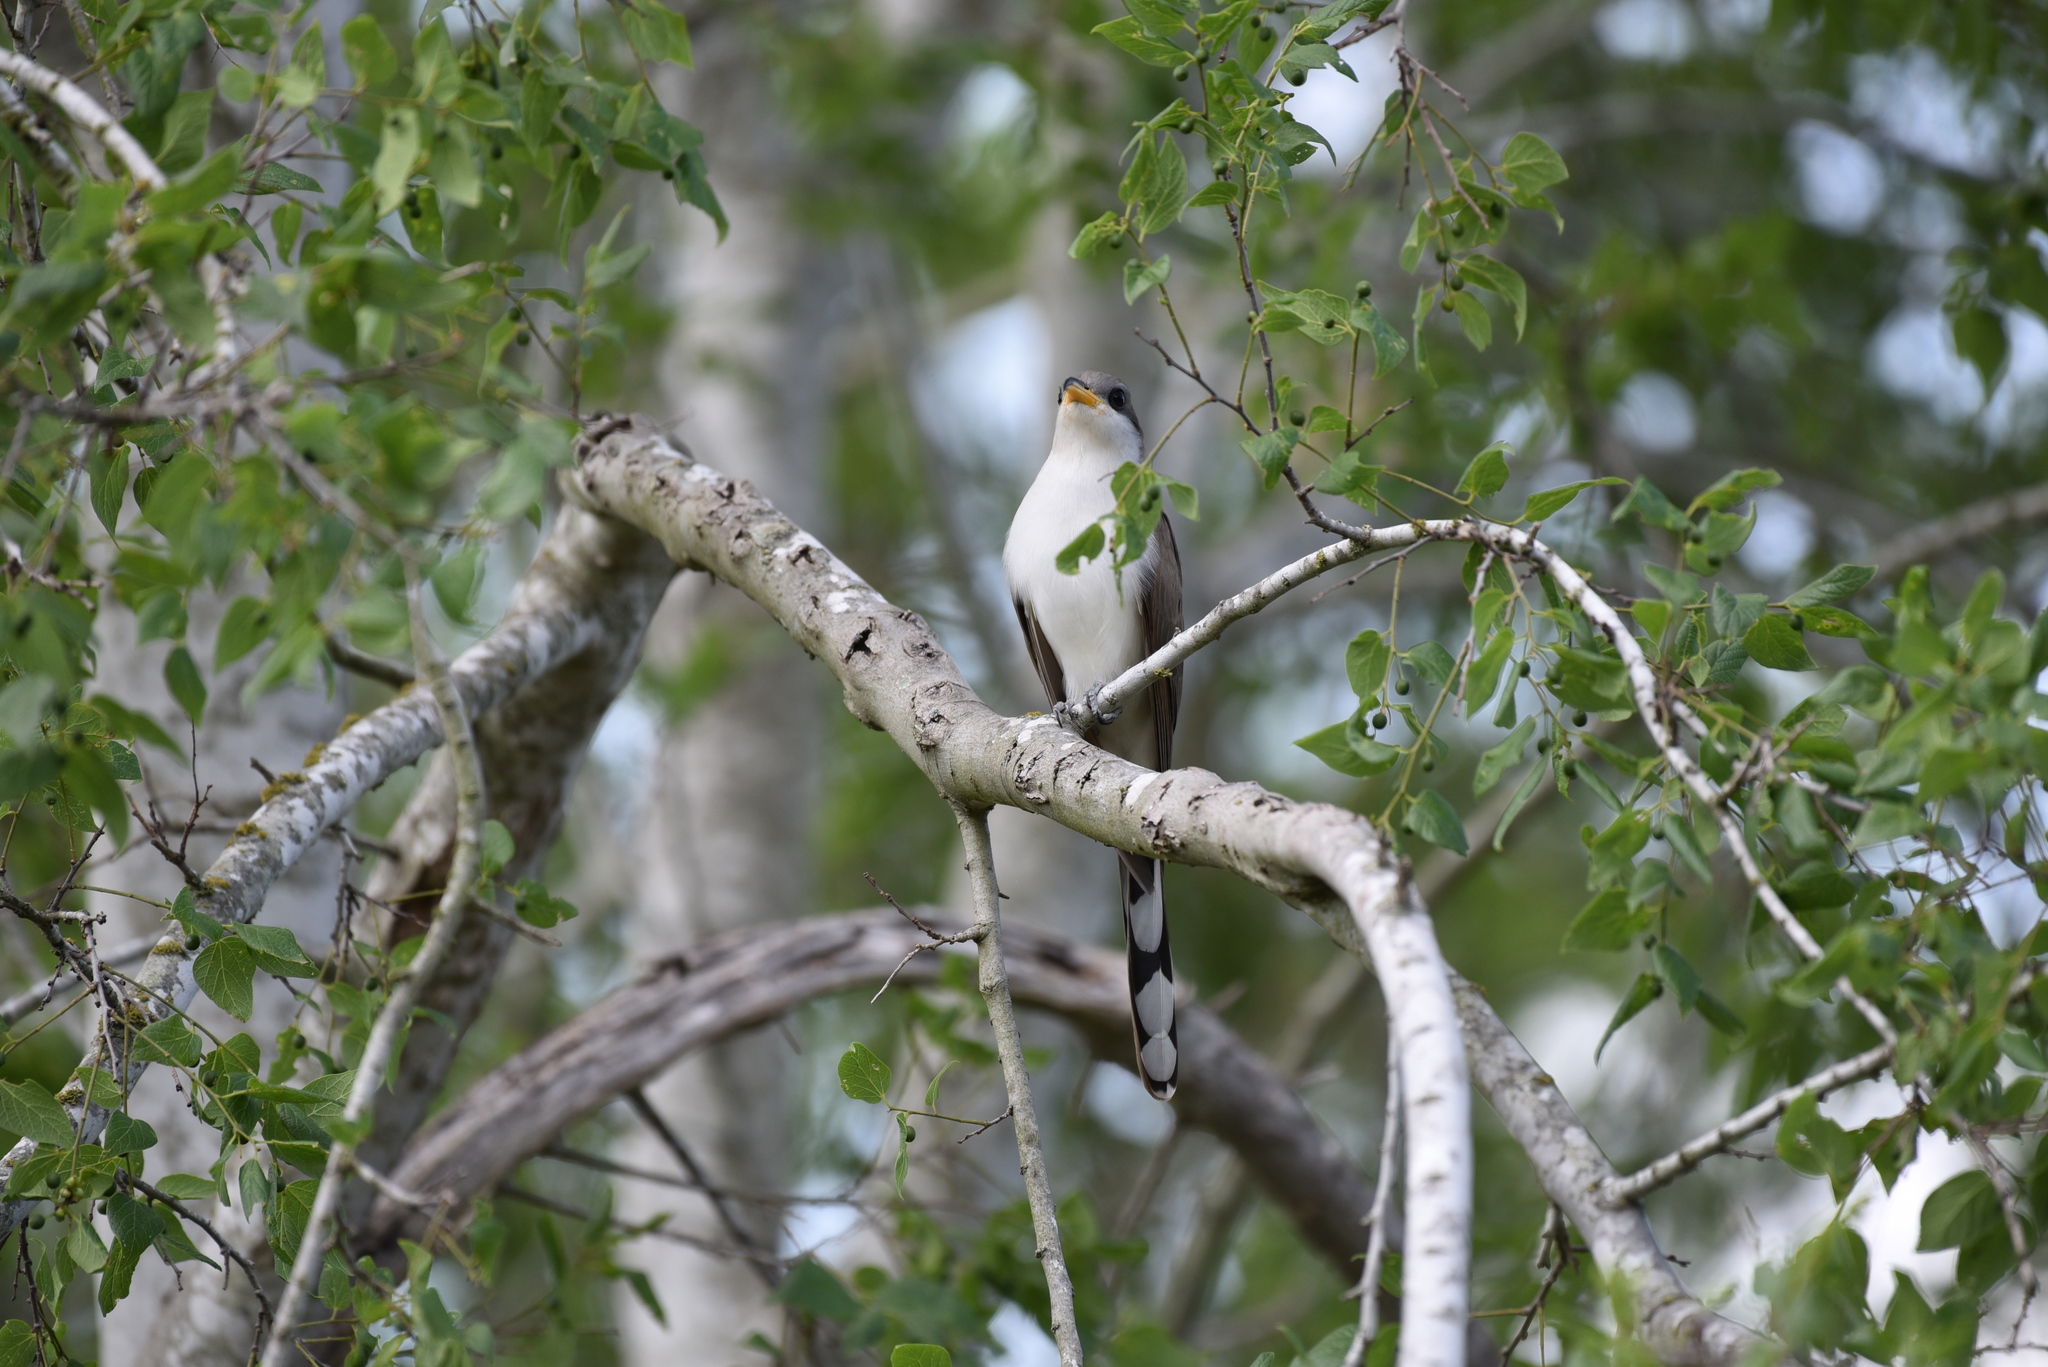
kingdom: Animalia
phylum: Chordata
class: Aves
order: Cuculiformes
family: Cuculidae
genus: Coccyzus
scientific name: Coccyzus americanus
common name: Yellow-billed cuckoo
